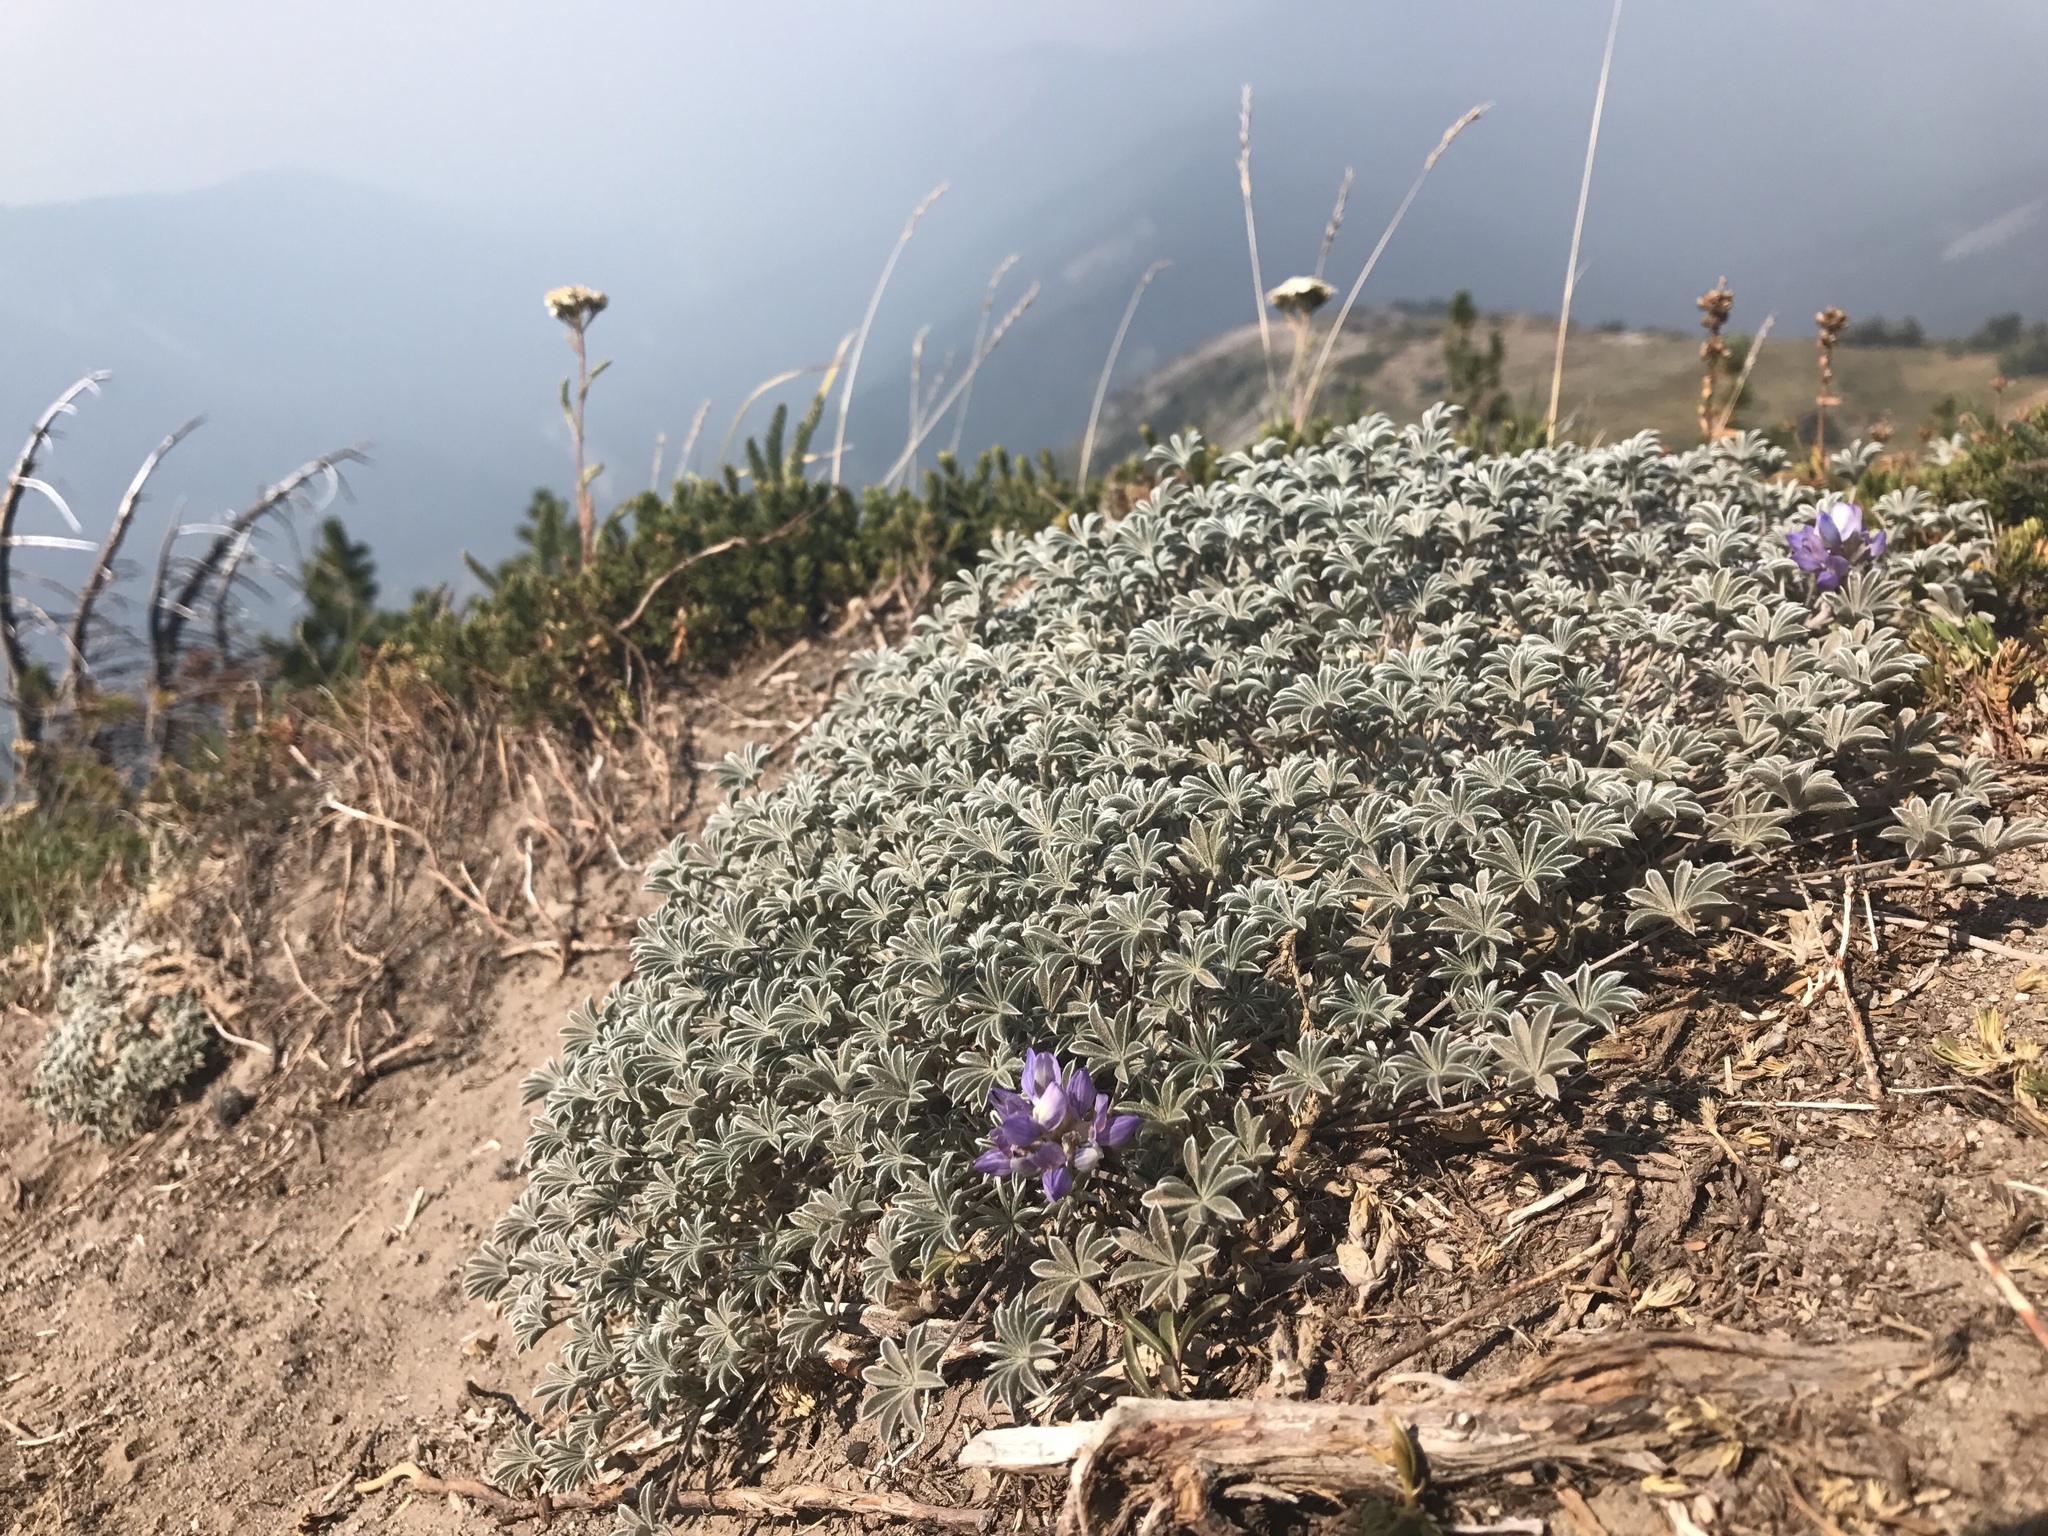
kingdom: Plantae
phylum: Tracheophyta
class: Magnoliopsida
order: Fabales
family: Fabaceae
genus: Lupinus
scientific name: Lupinus lepidus
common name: Prairie lupine
